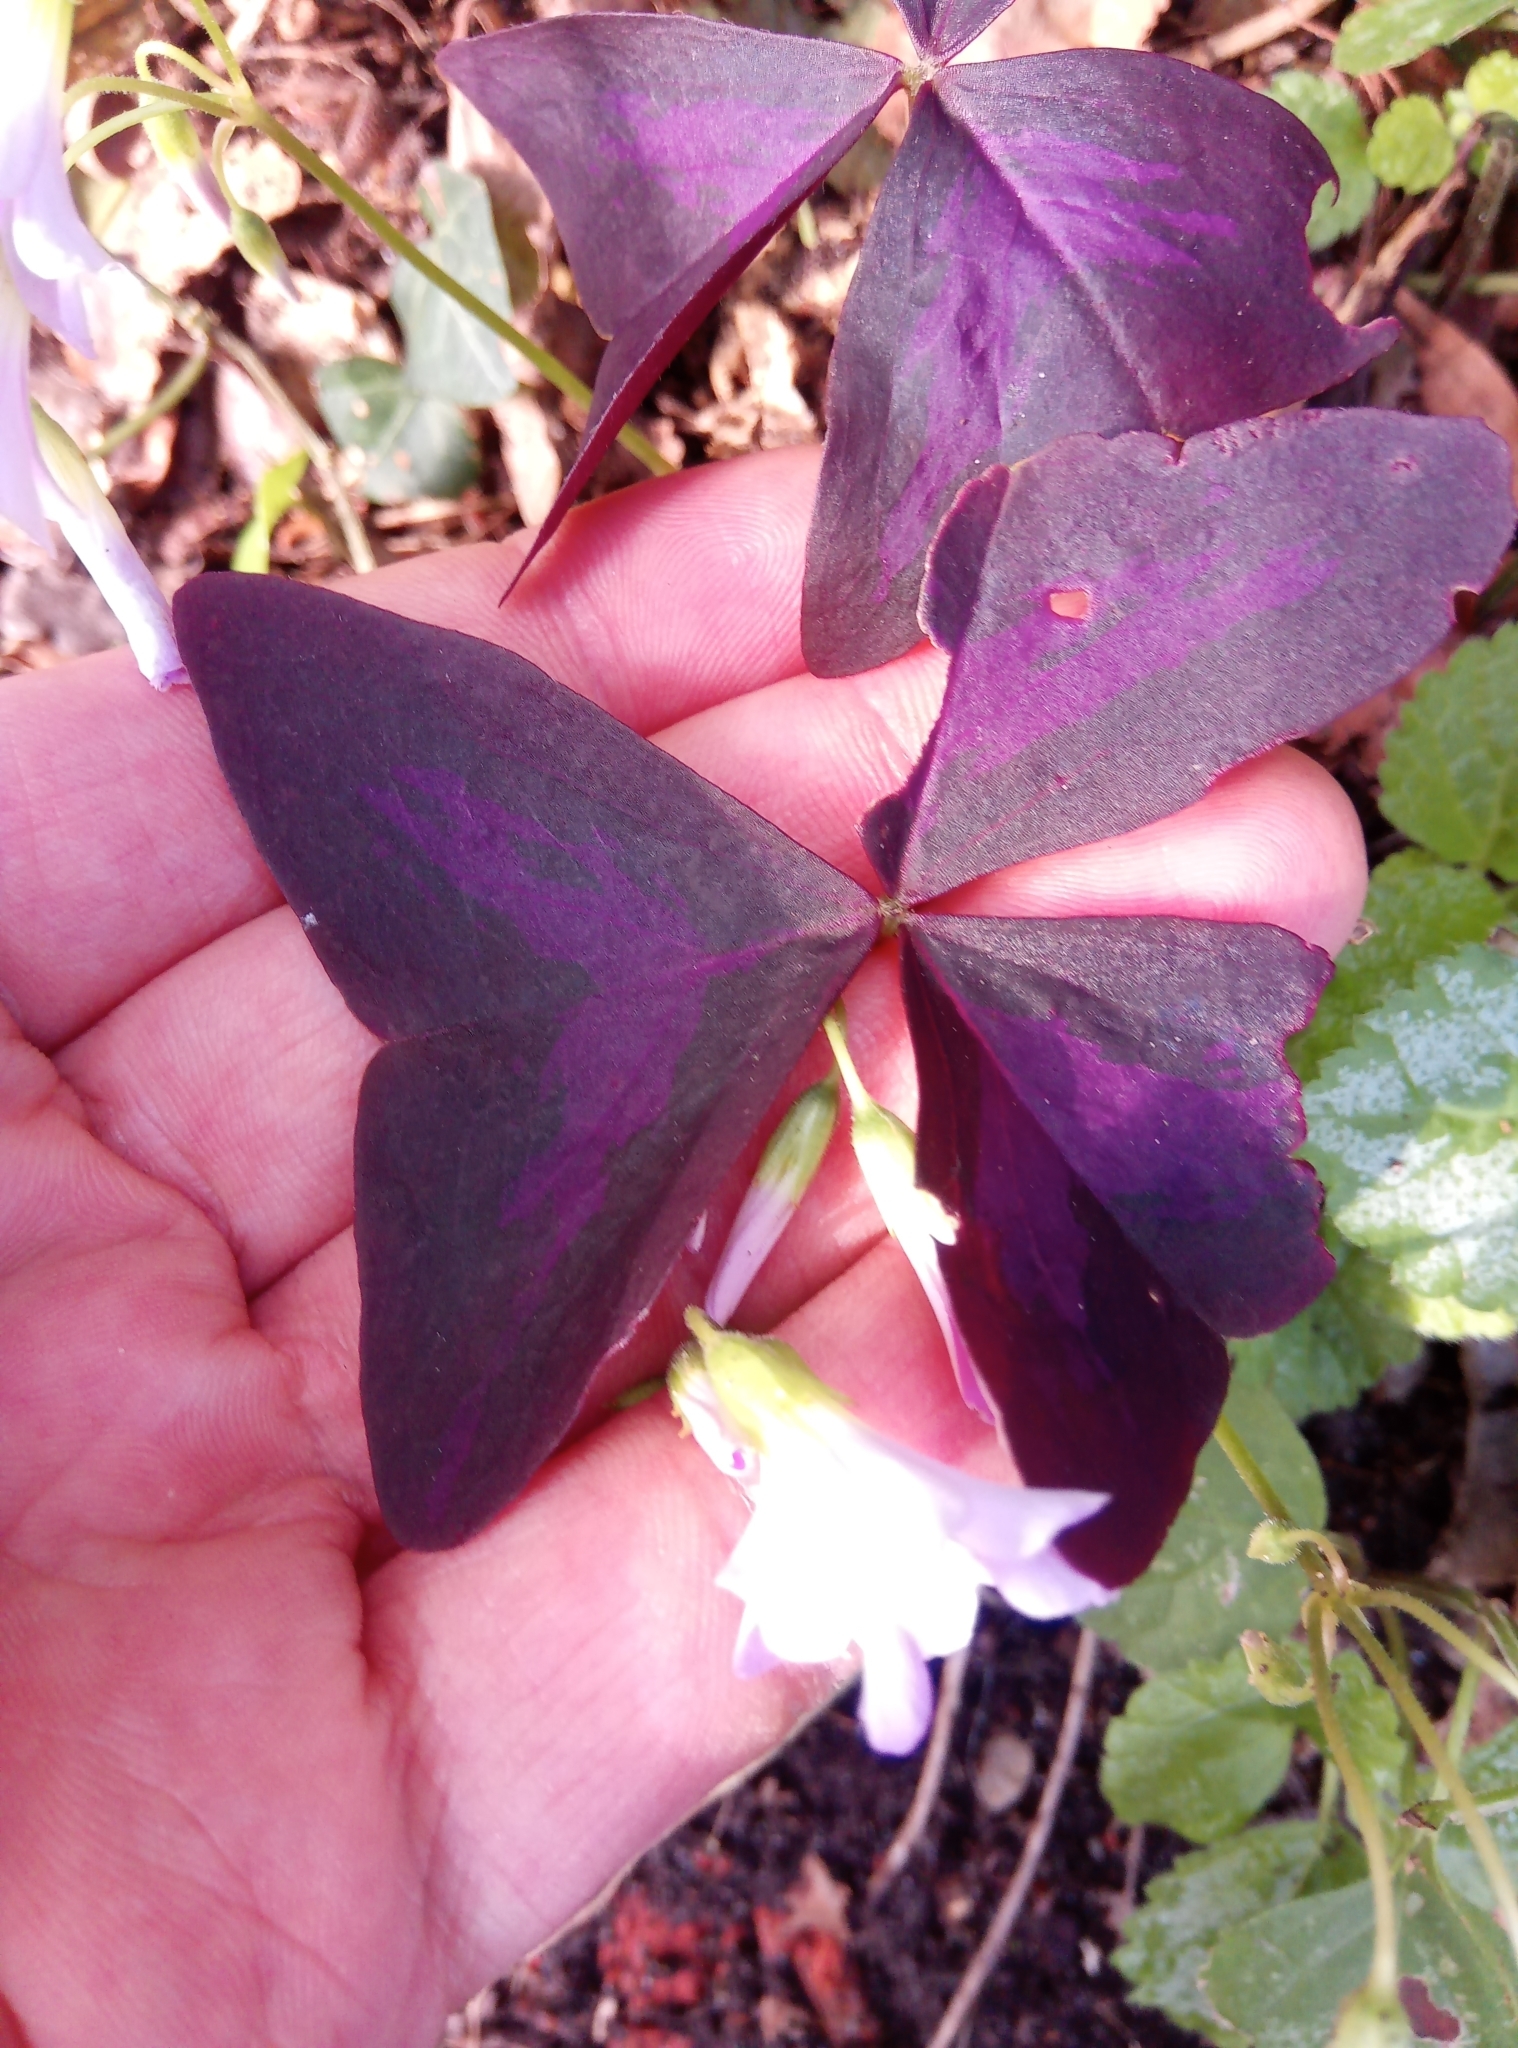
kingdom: Plantae
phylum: Tracheophyta
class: Magnoliopsida
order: Oxalidales
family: Oxalidaceae
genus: Oxalis
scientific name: Oxalis triangularis
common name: Wood sorrel
